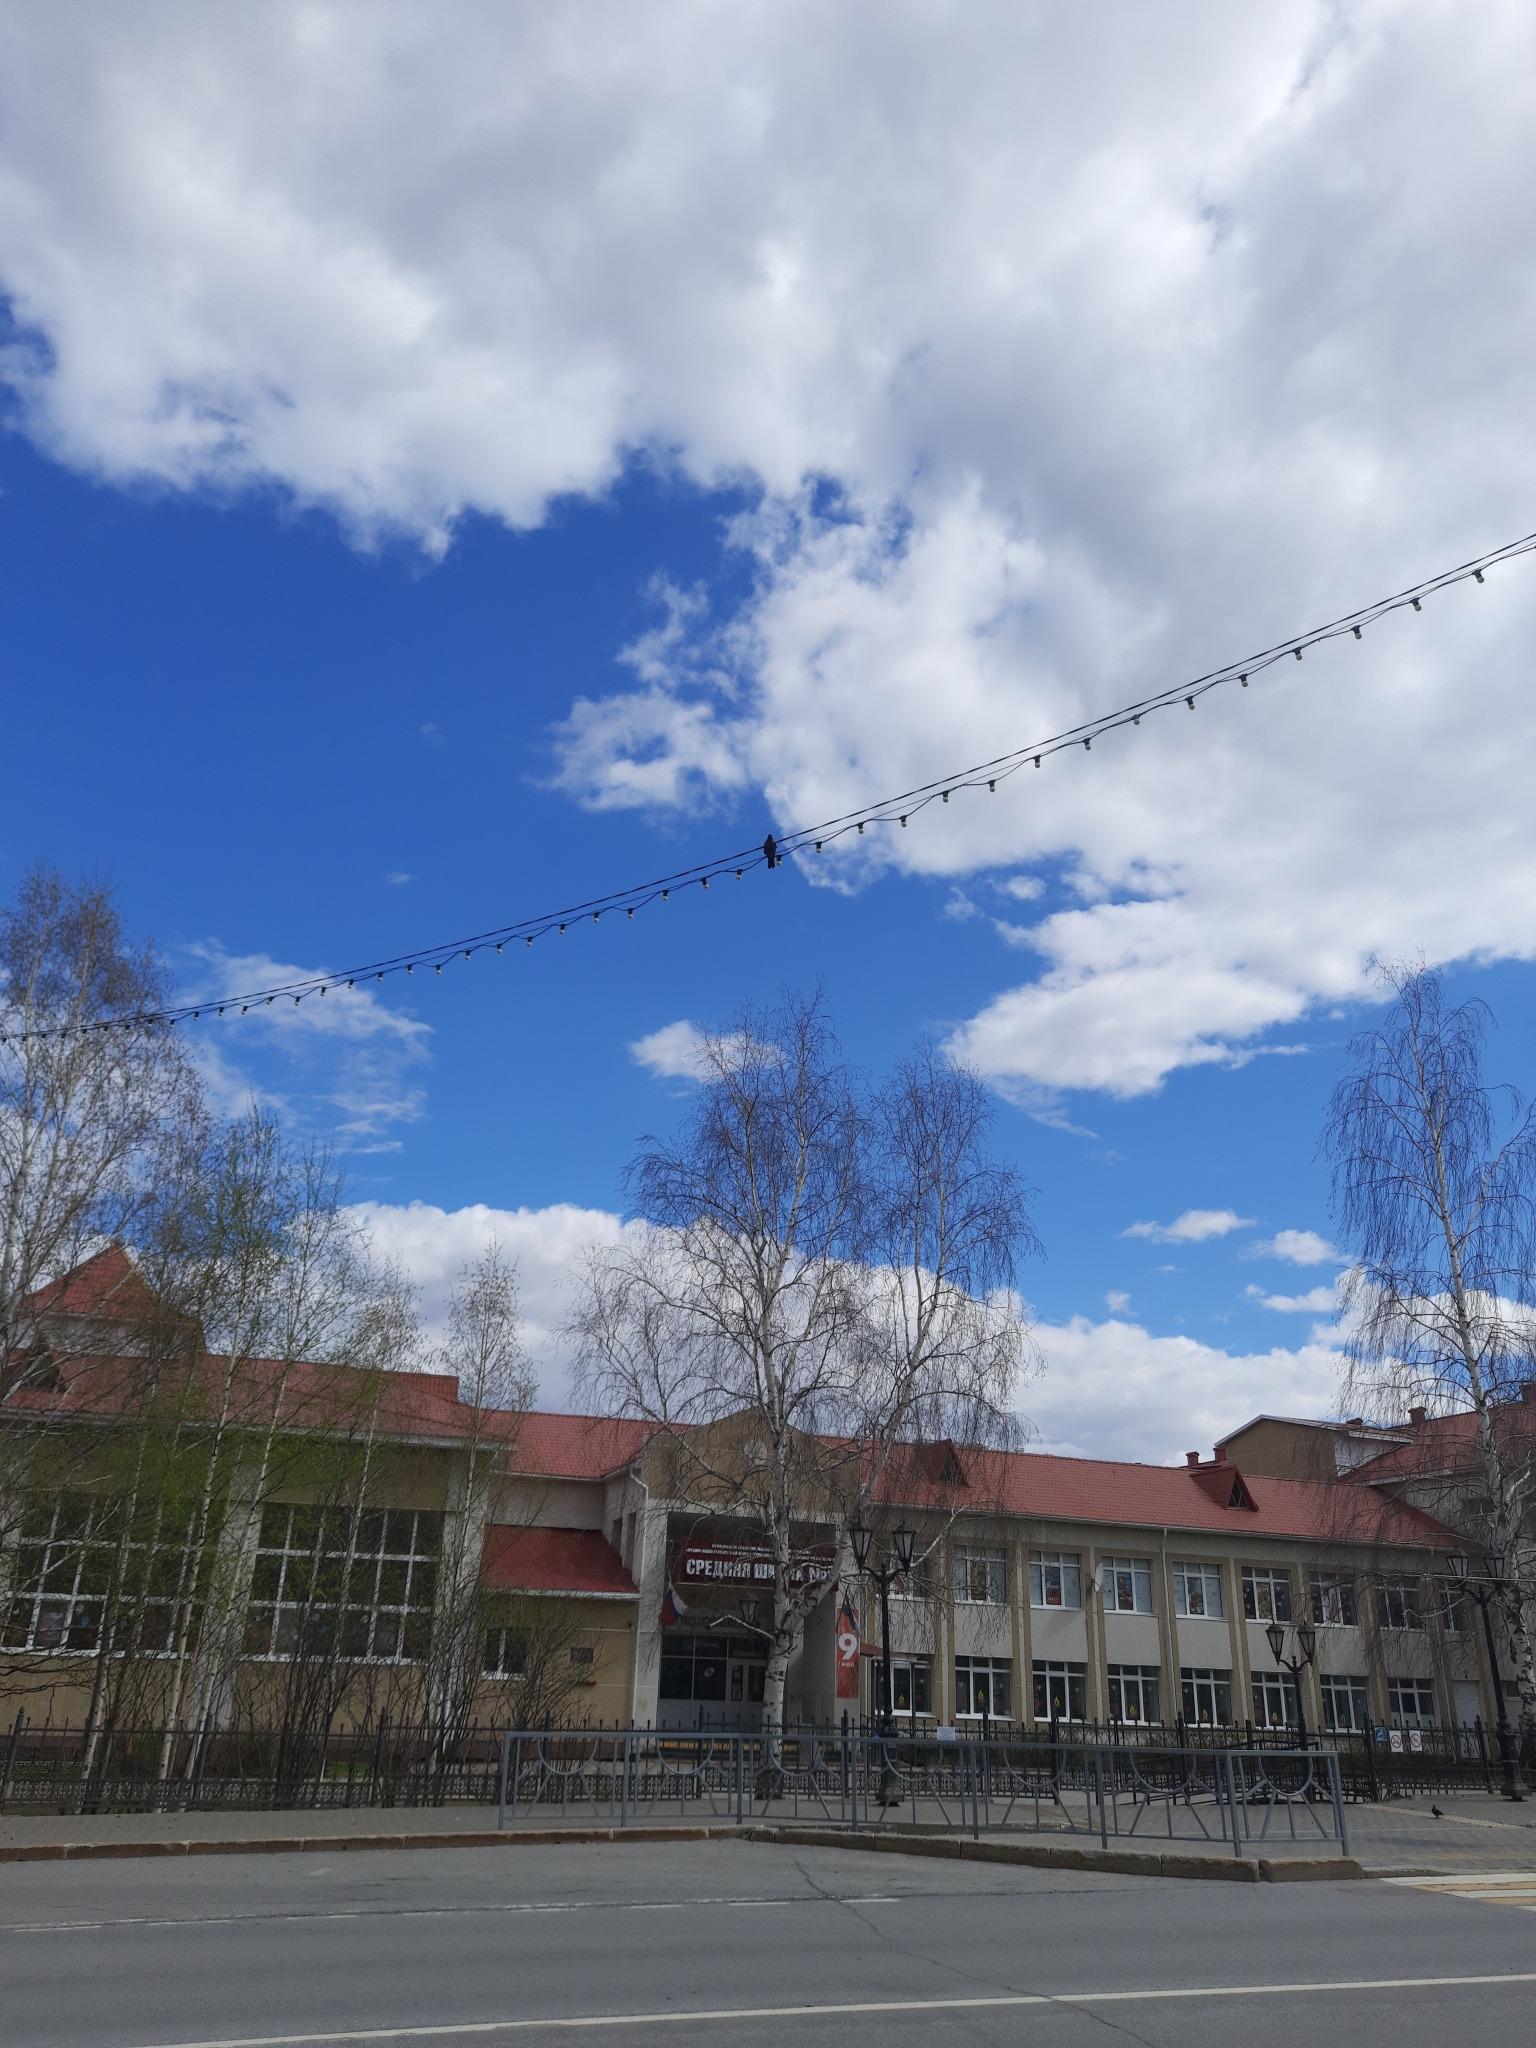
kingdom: Animalia
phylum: Chordata
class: Aves
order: Passeriformes
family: Corvidae
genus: Coloeus
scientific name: Coloeus monedula
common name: Western jackdaw
